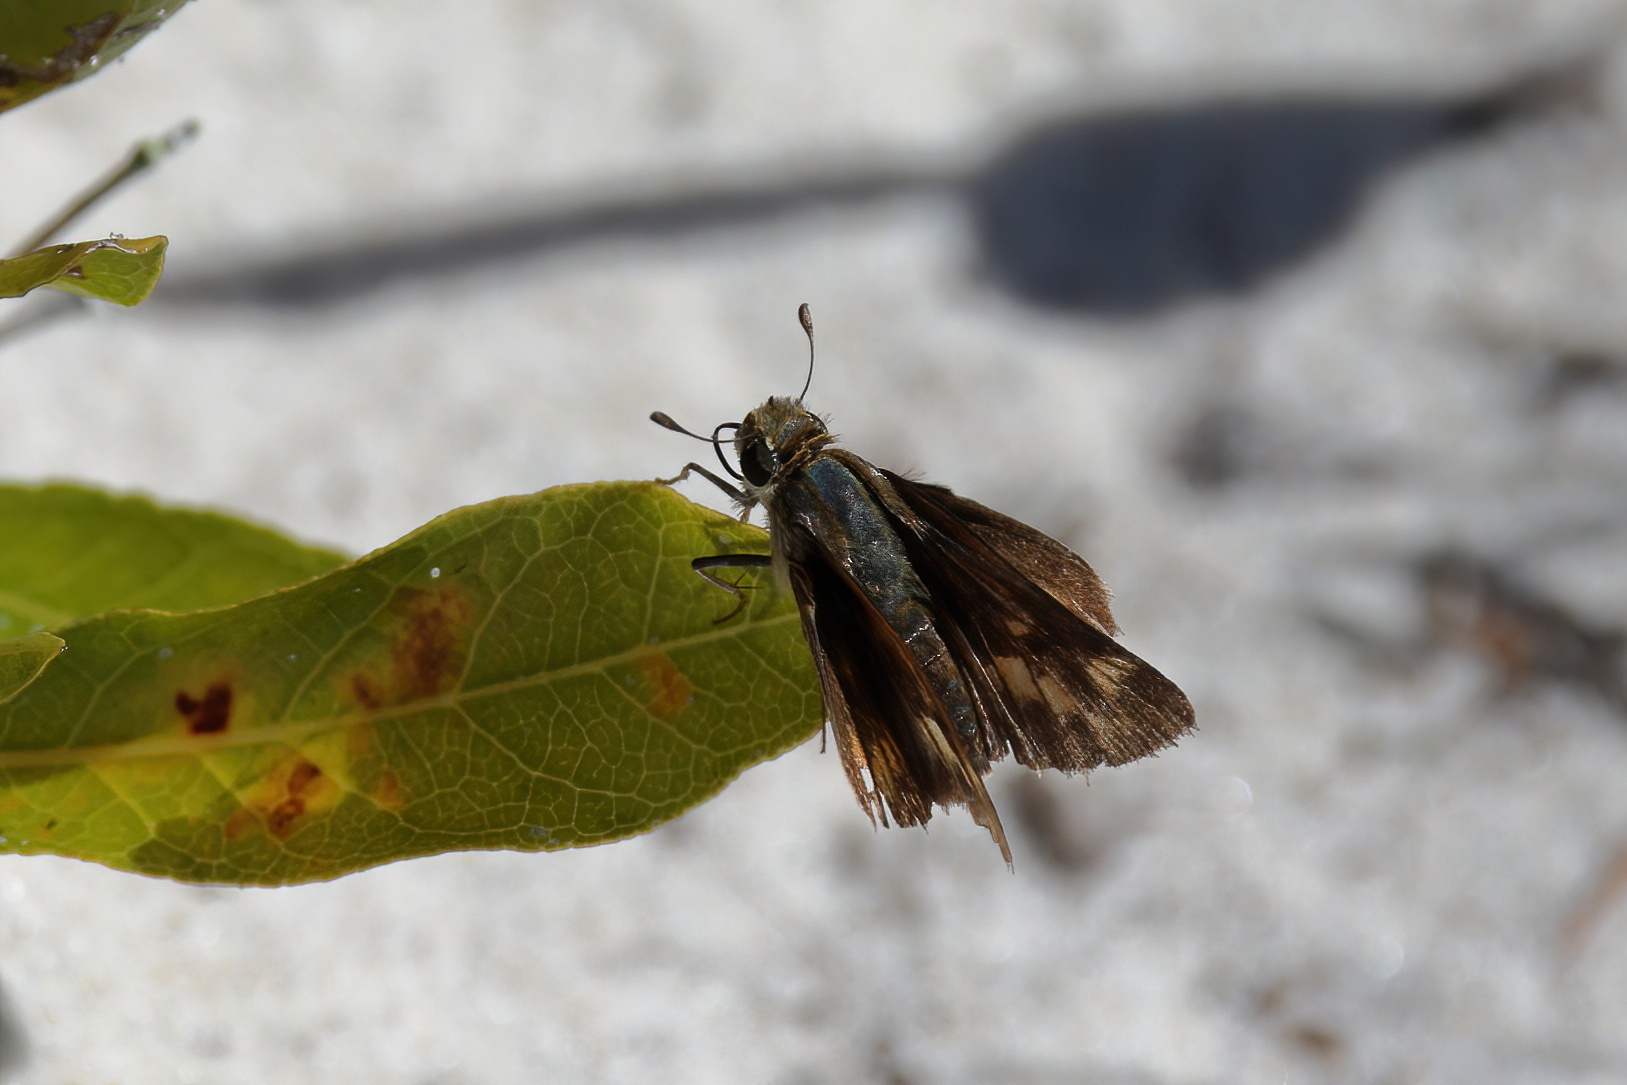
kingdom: Animalia
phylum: Arthropoda
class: Insecta
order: Lepidoptera
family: Hesperiidae
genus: Hylephila
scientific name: Hylephila phyleus
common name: Fiery skipper
